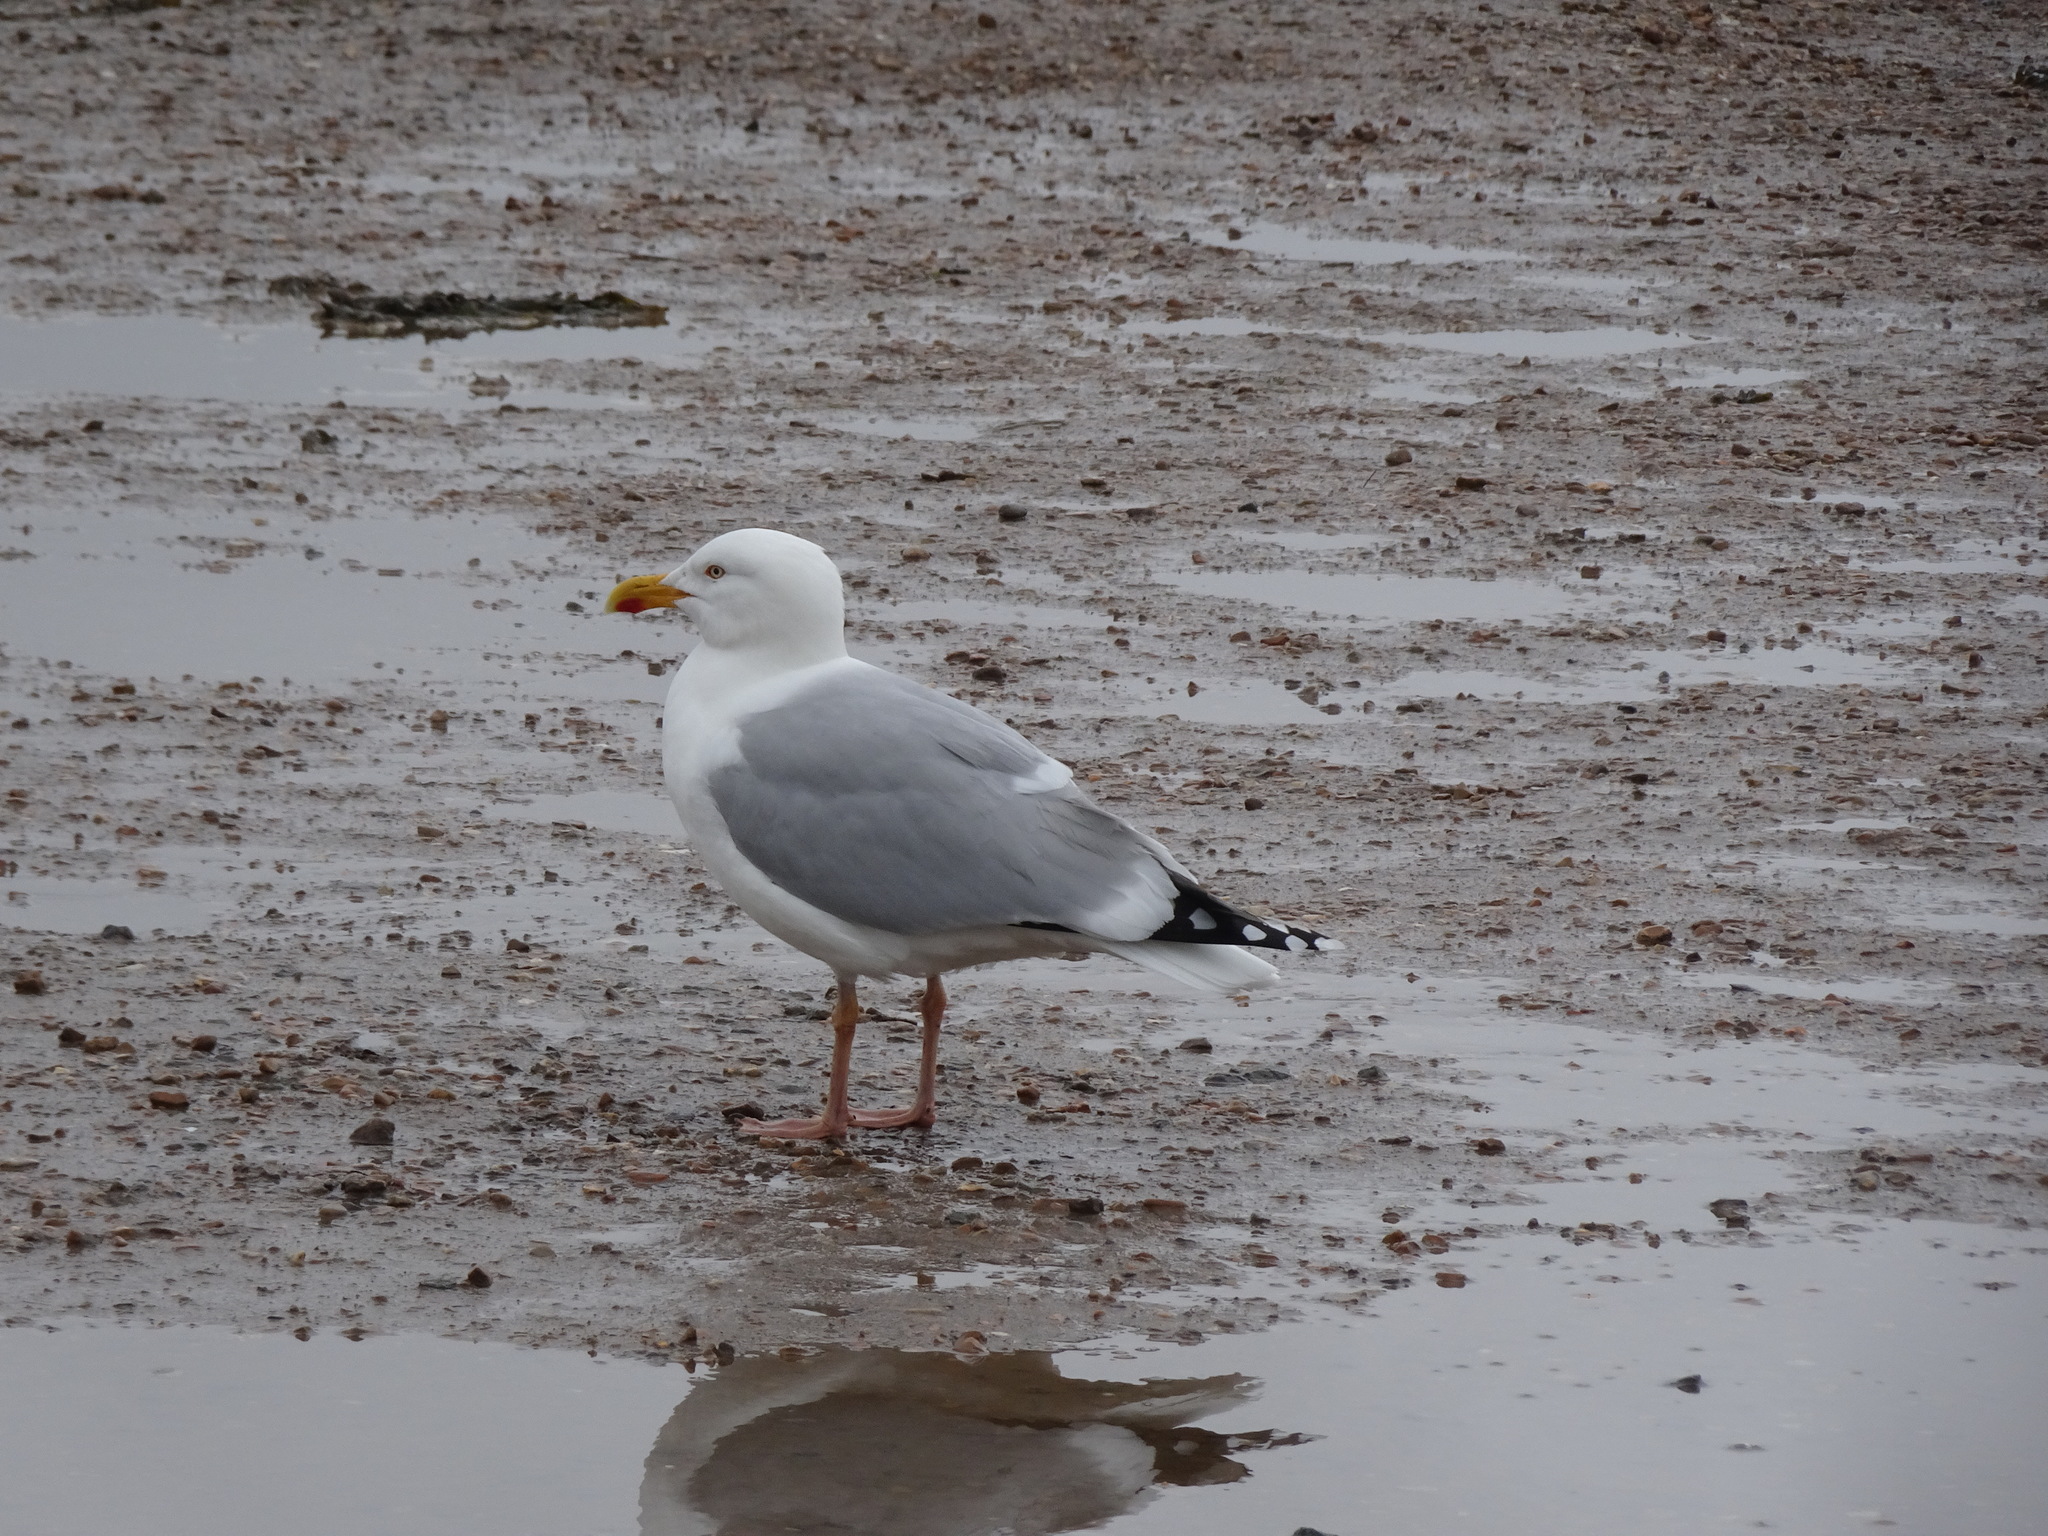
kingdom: Animalia
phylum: Chordata
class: Aves
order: Charadriiformes
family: Laridae
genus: Larus
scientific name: Larus argentatus
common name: Herring gull
